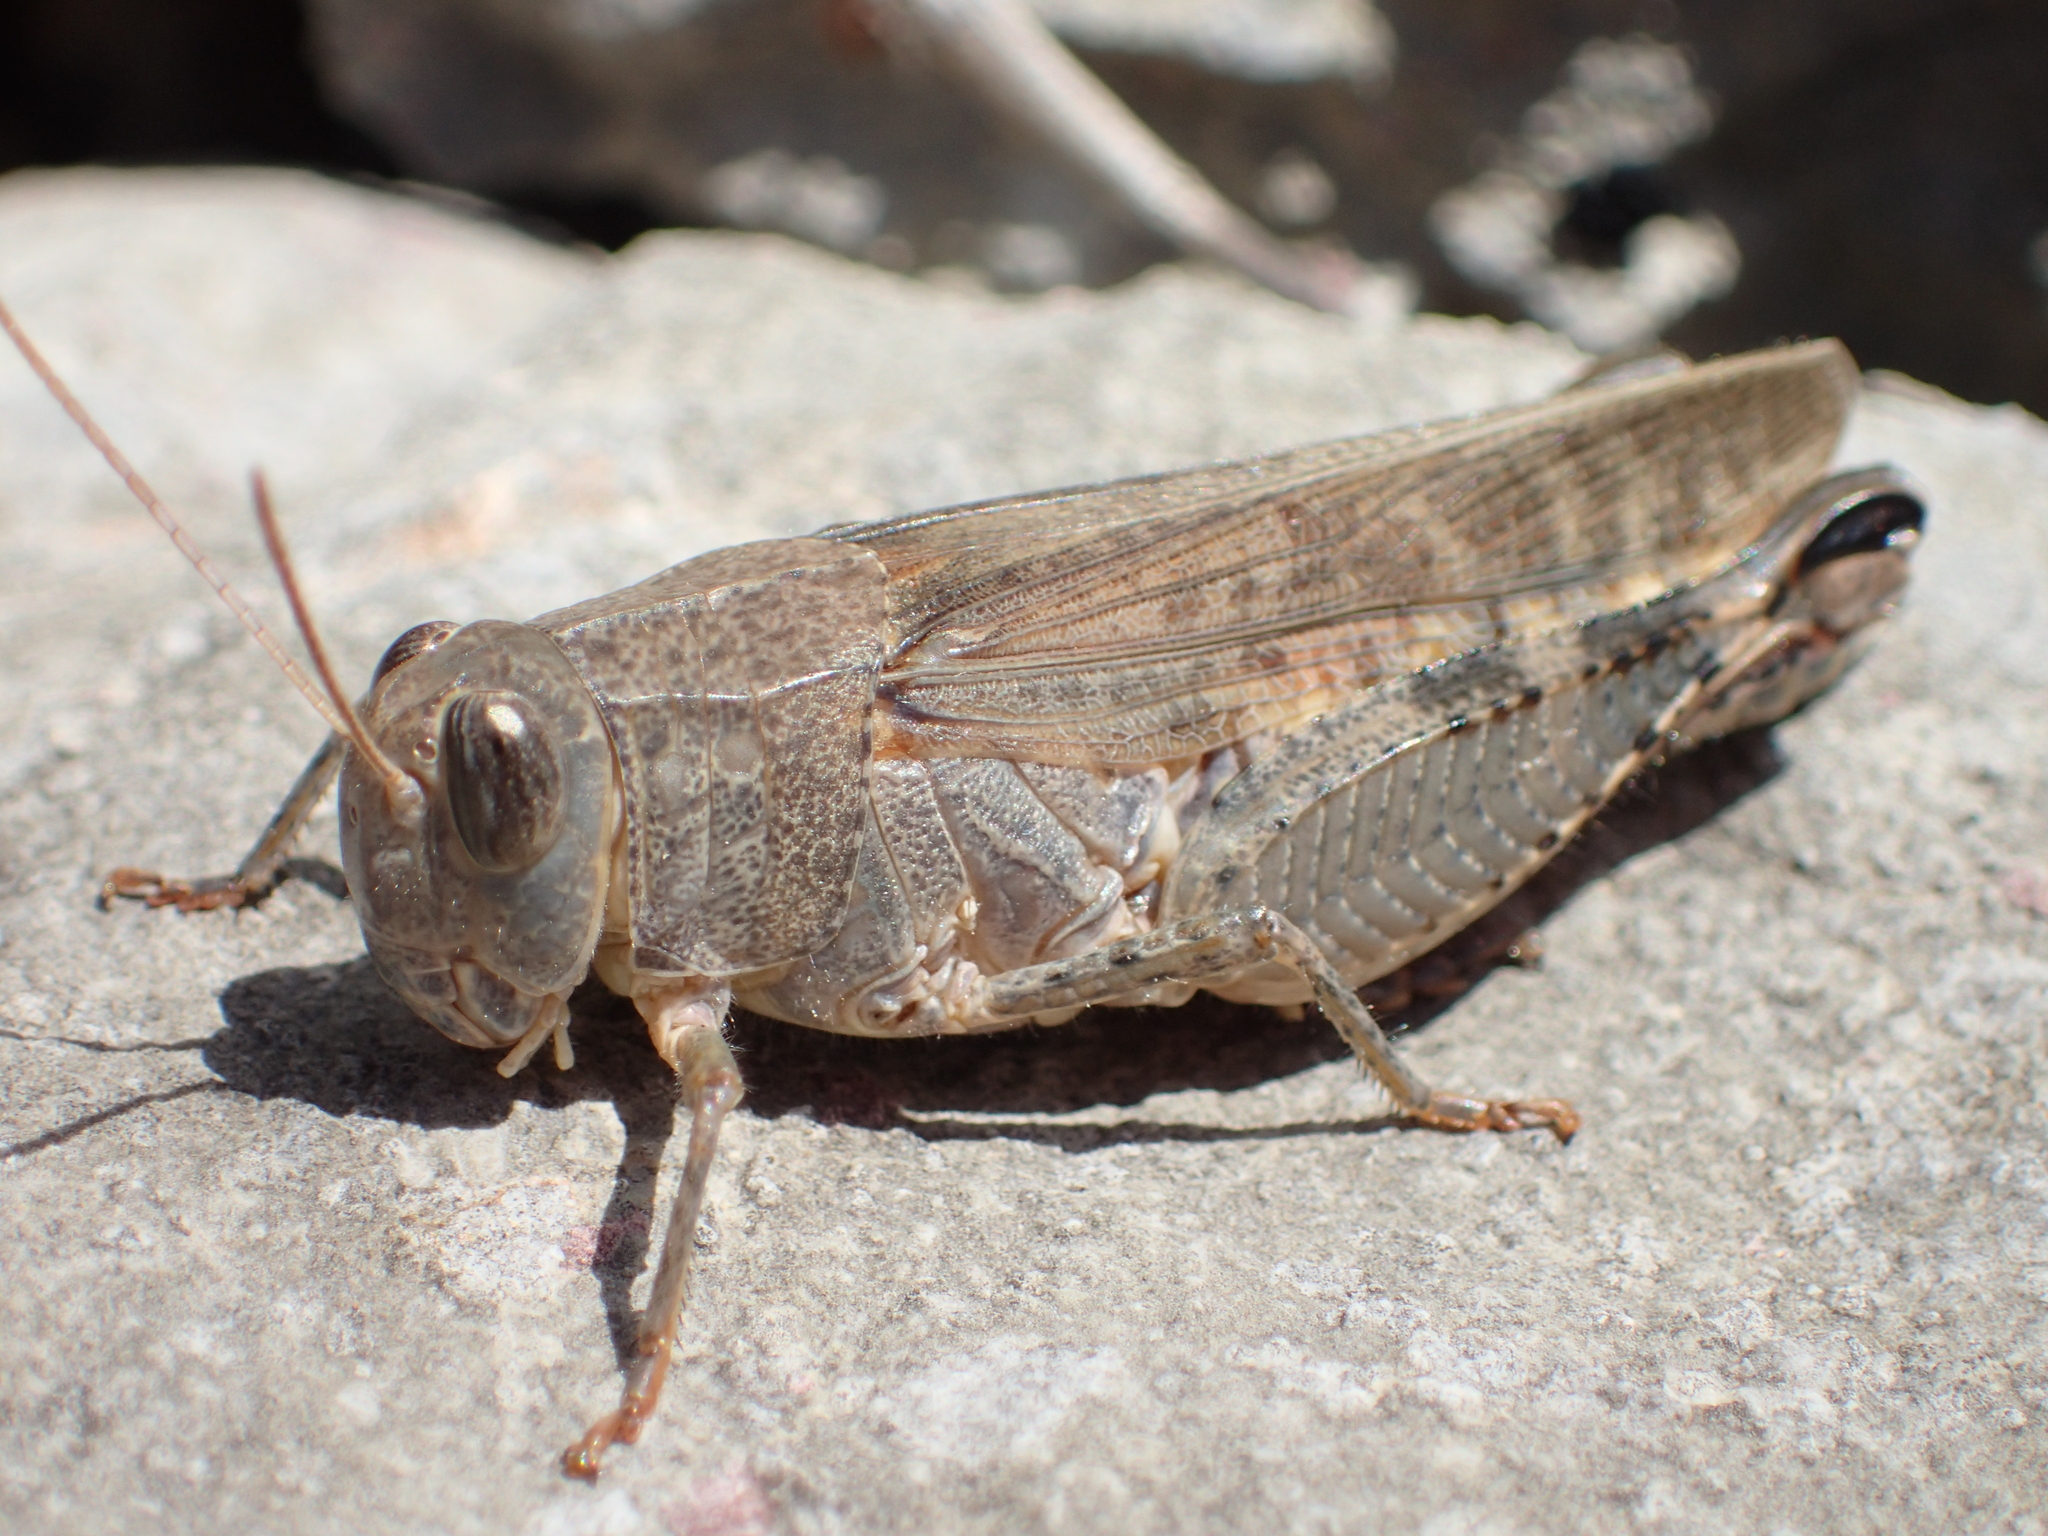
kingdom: Animalia
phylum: Arthropoda
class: Insecta
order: Orthoptera
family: Acrididae
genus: Calliptamus
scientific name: Calliptamus italicus
